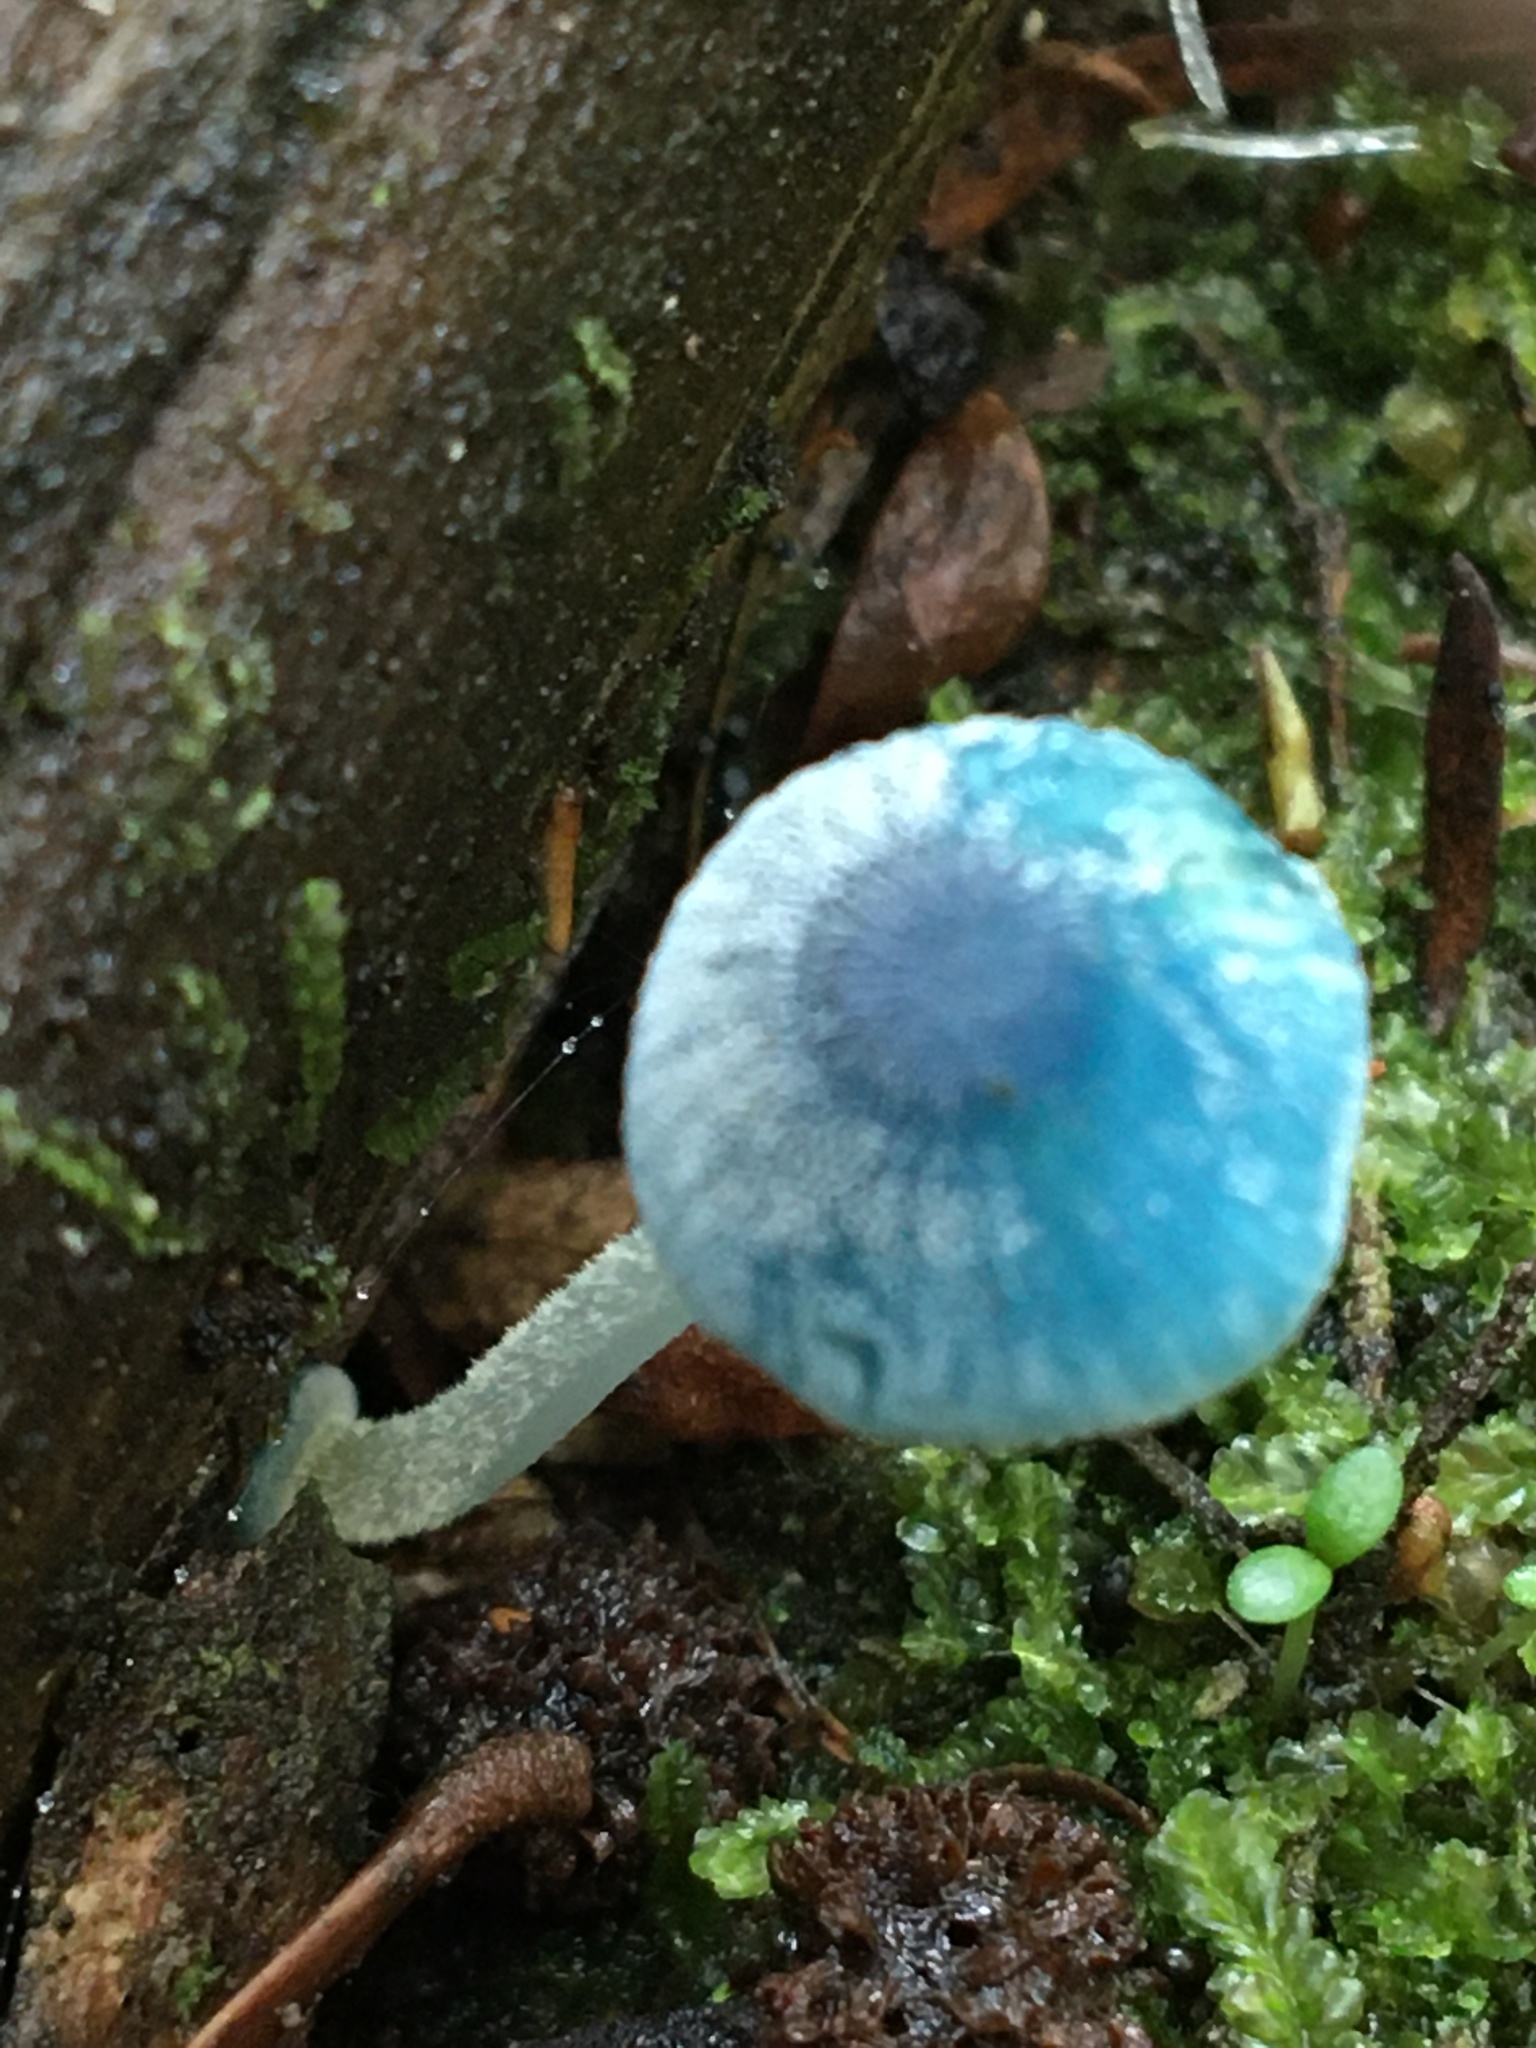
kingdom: Fungi
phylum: Basidiomycota
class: Agaricomycetes
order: Agaricales
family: Mycenaceae
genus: Mycena
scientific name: Mycena interrupta
